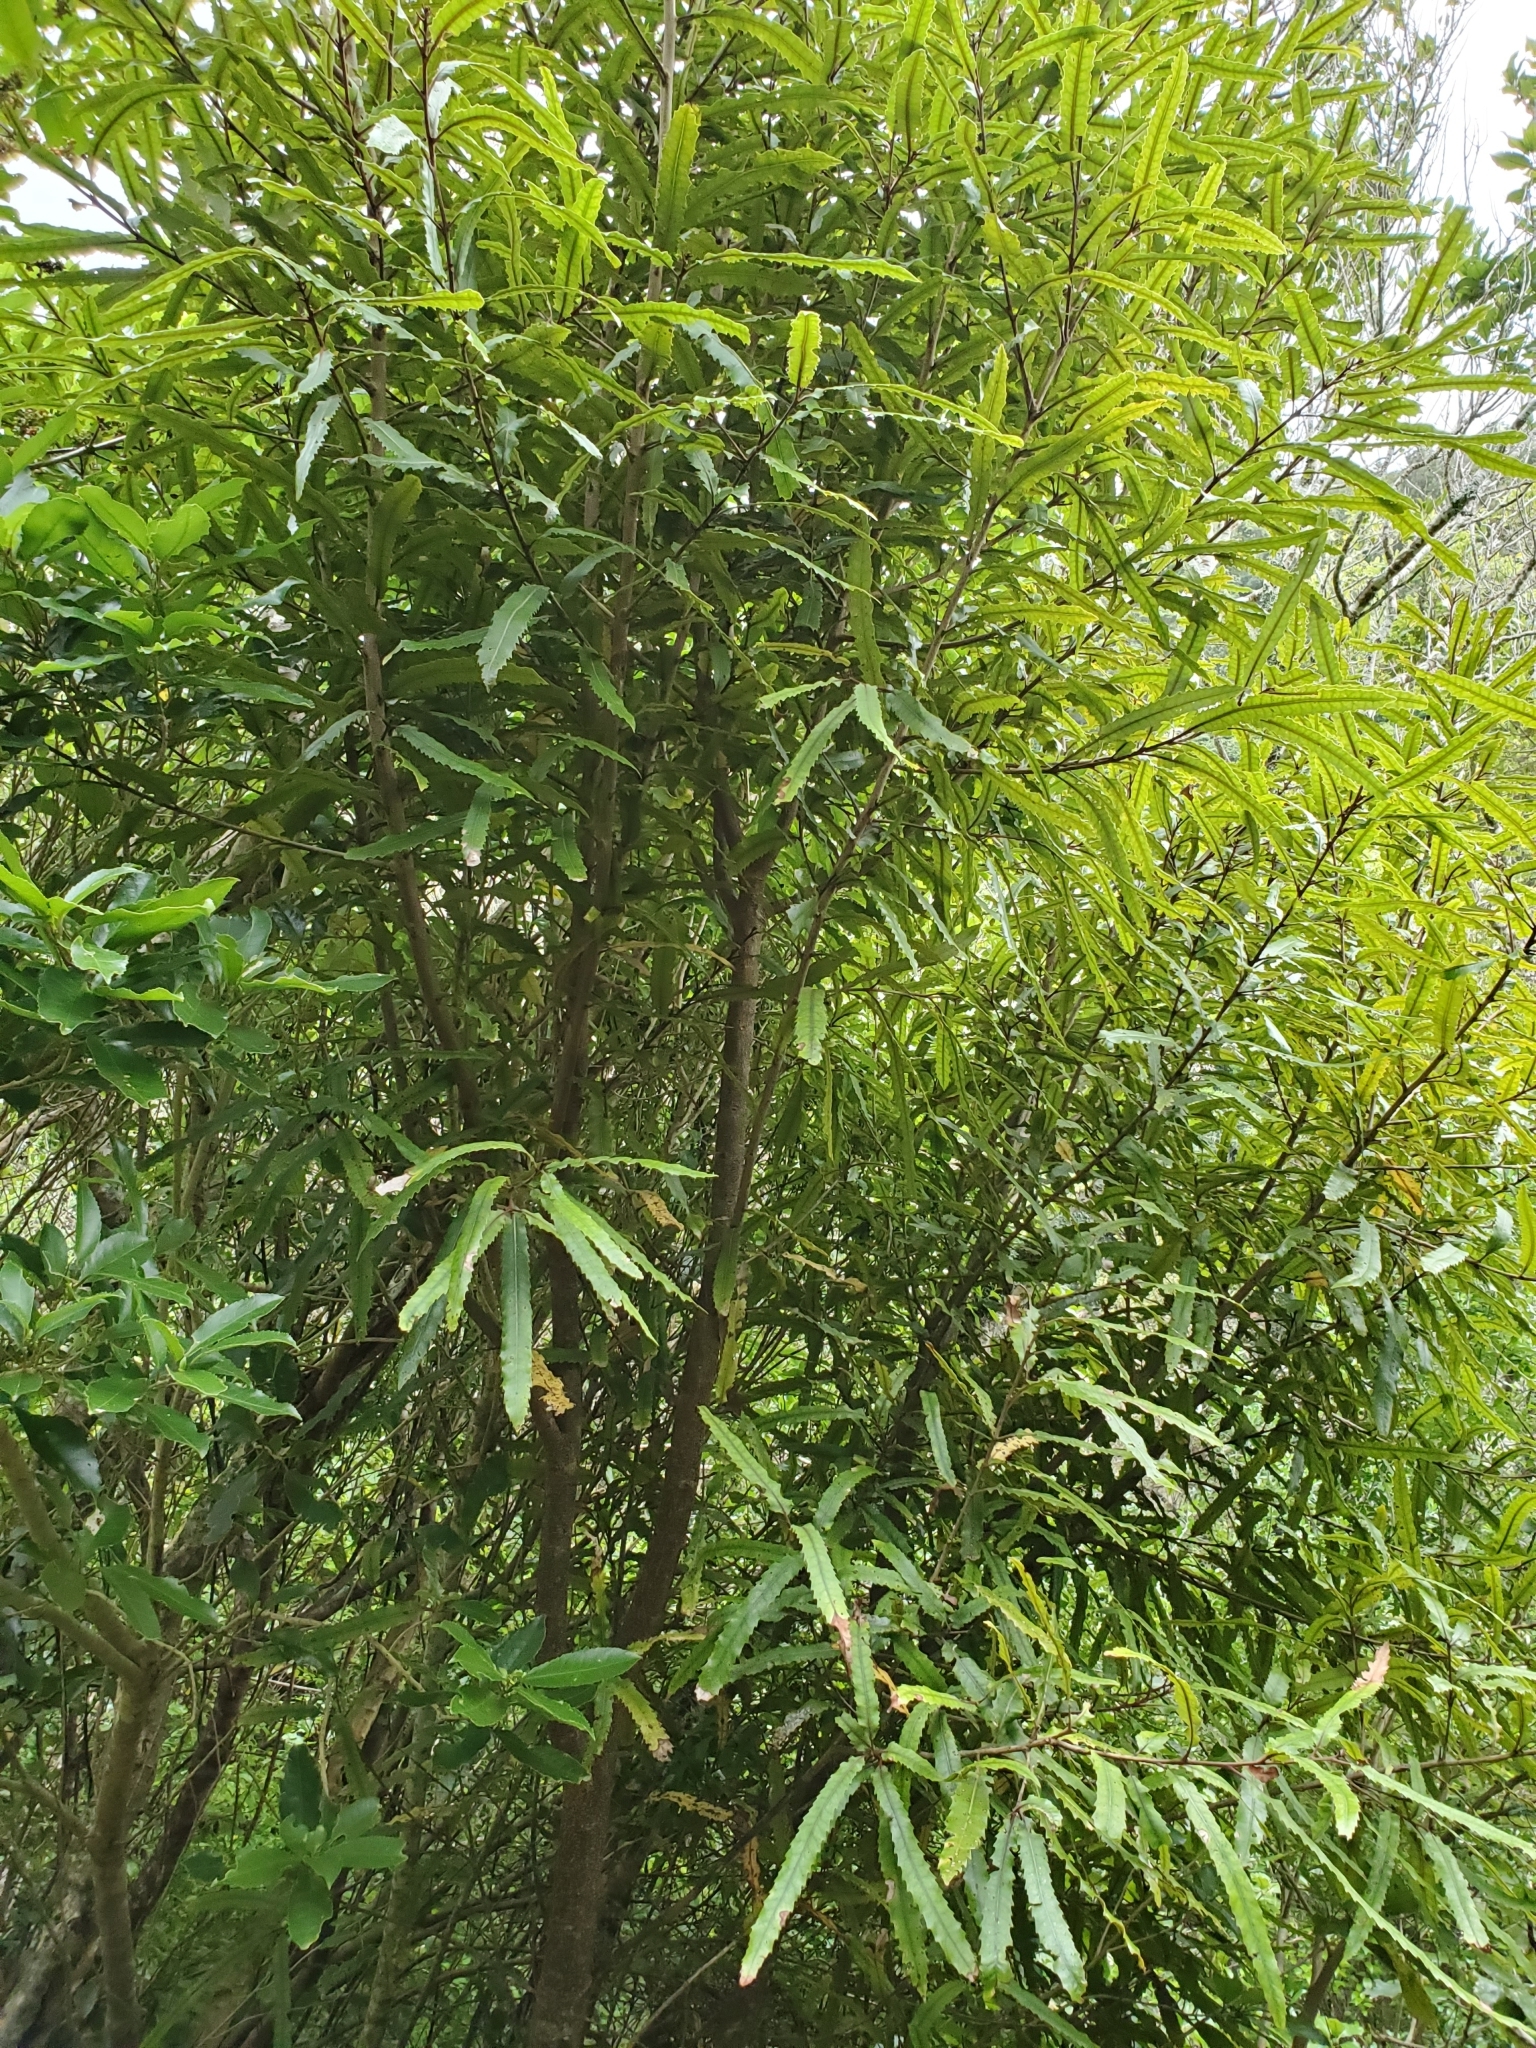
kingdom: Plantae
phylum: Tracheophyta
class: Magnoliopsida
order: Proteales
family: Proteaceae
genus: Knightia
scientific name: Knightia excelsa
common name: New zealand-honeysuckle
